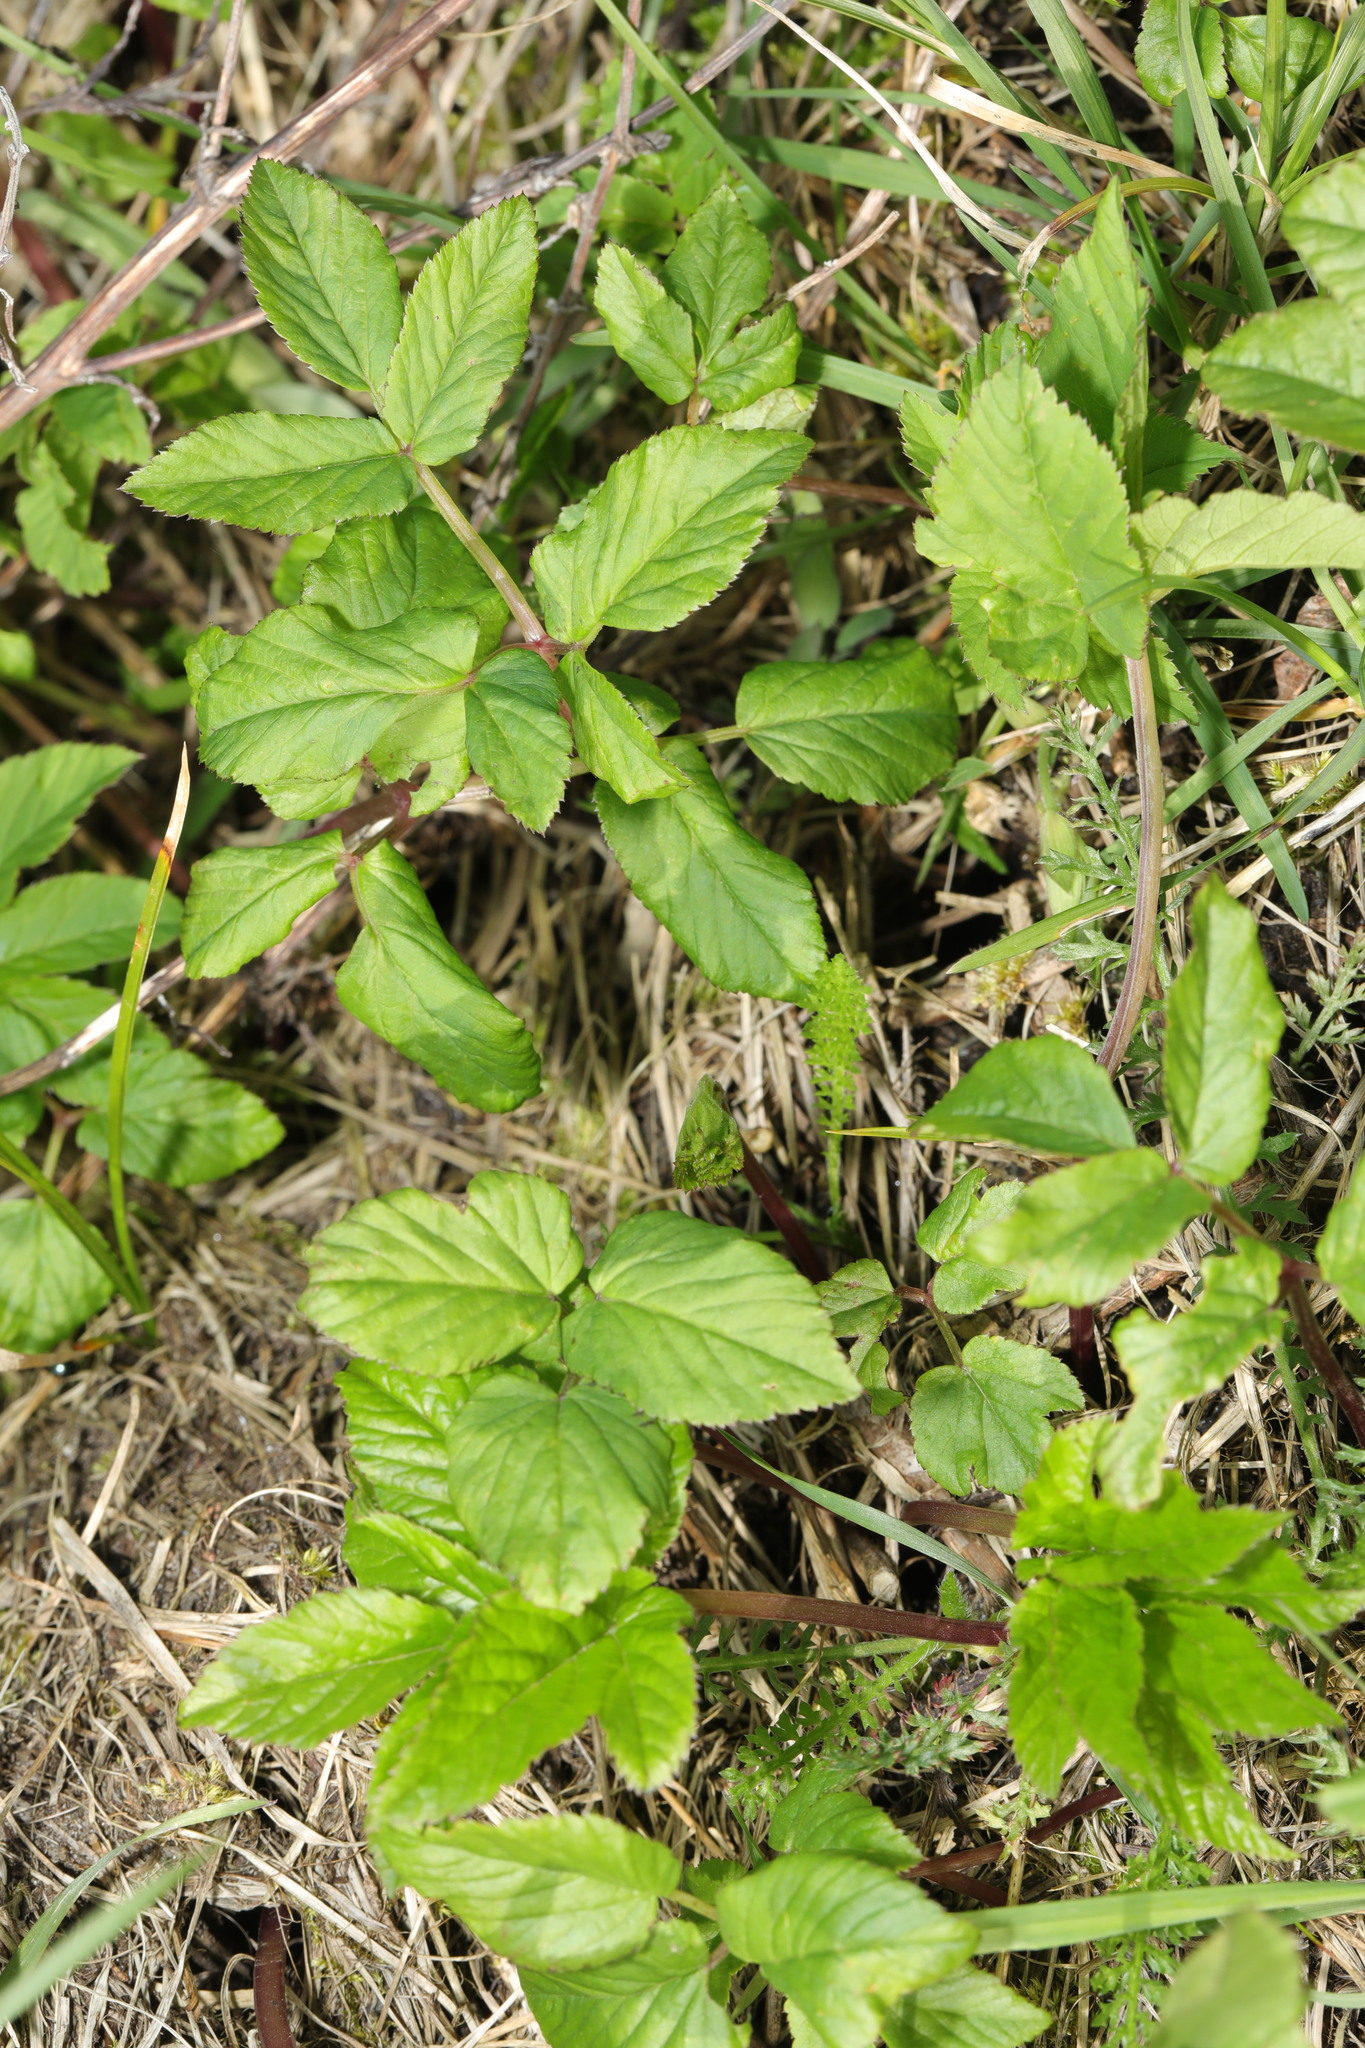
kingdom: Plantae
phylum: Tracheophyta
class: Magnoliopsida
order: Apiales
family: Apiaceae
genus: Aegopodium
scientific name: Aegopodium podagraria
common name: Ground-elder
